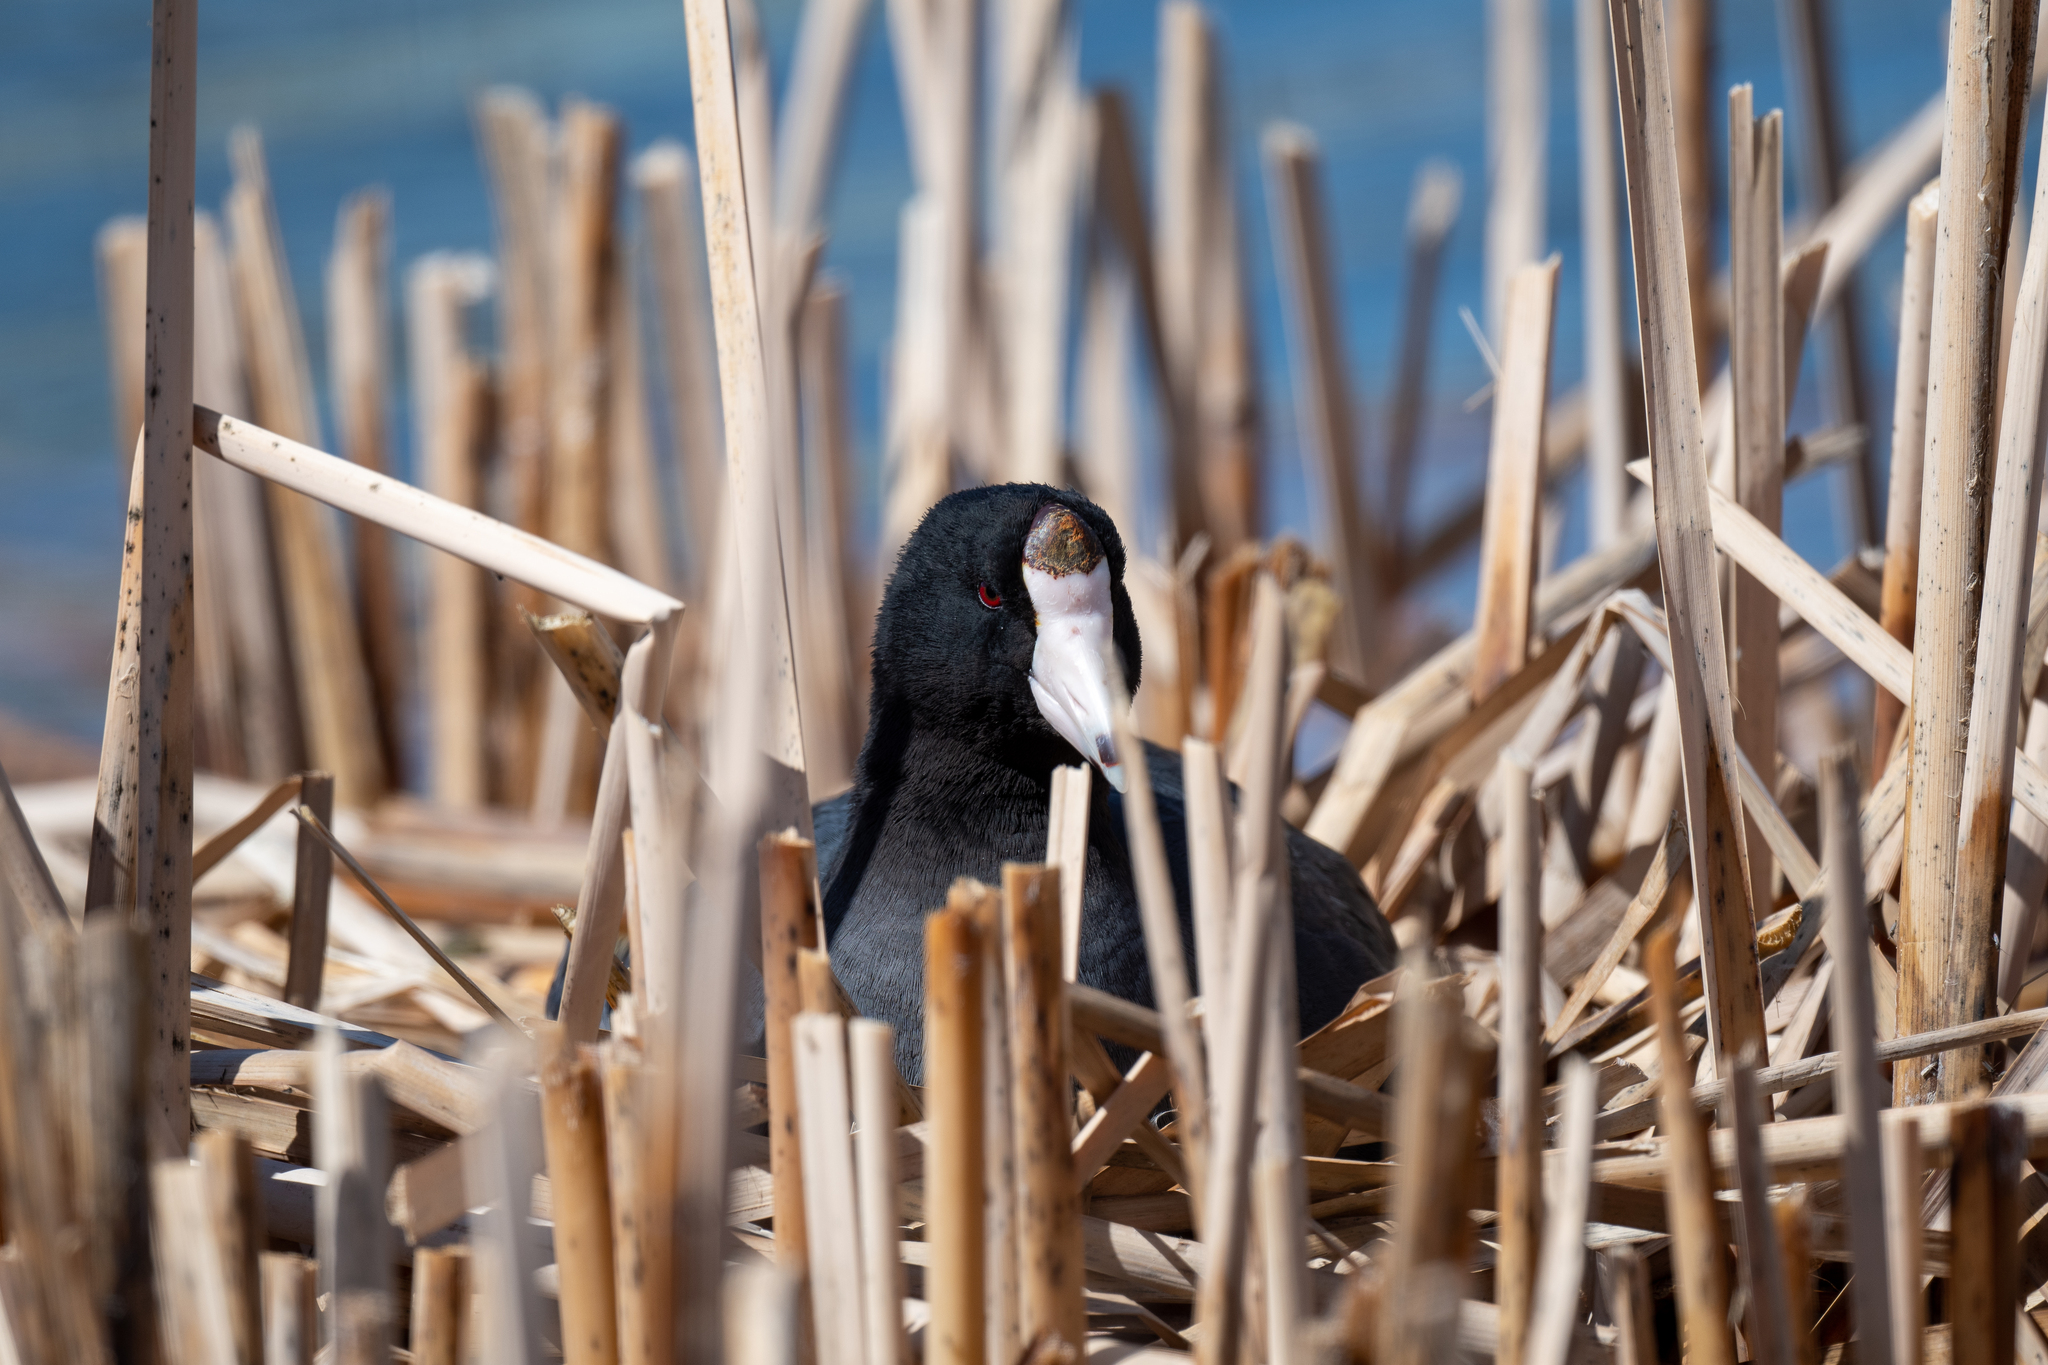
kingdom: Animalia
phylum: Chordata
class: Aves
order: Gruiformes
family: Rallidae
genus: Fulica
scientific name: Fulica americana
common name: American coot
